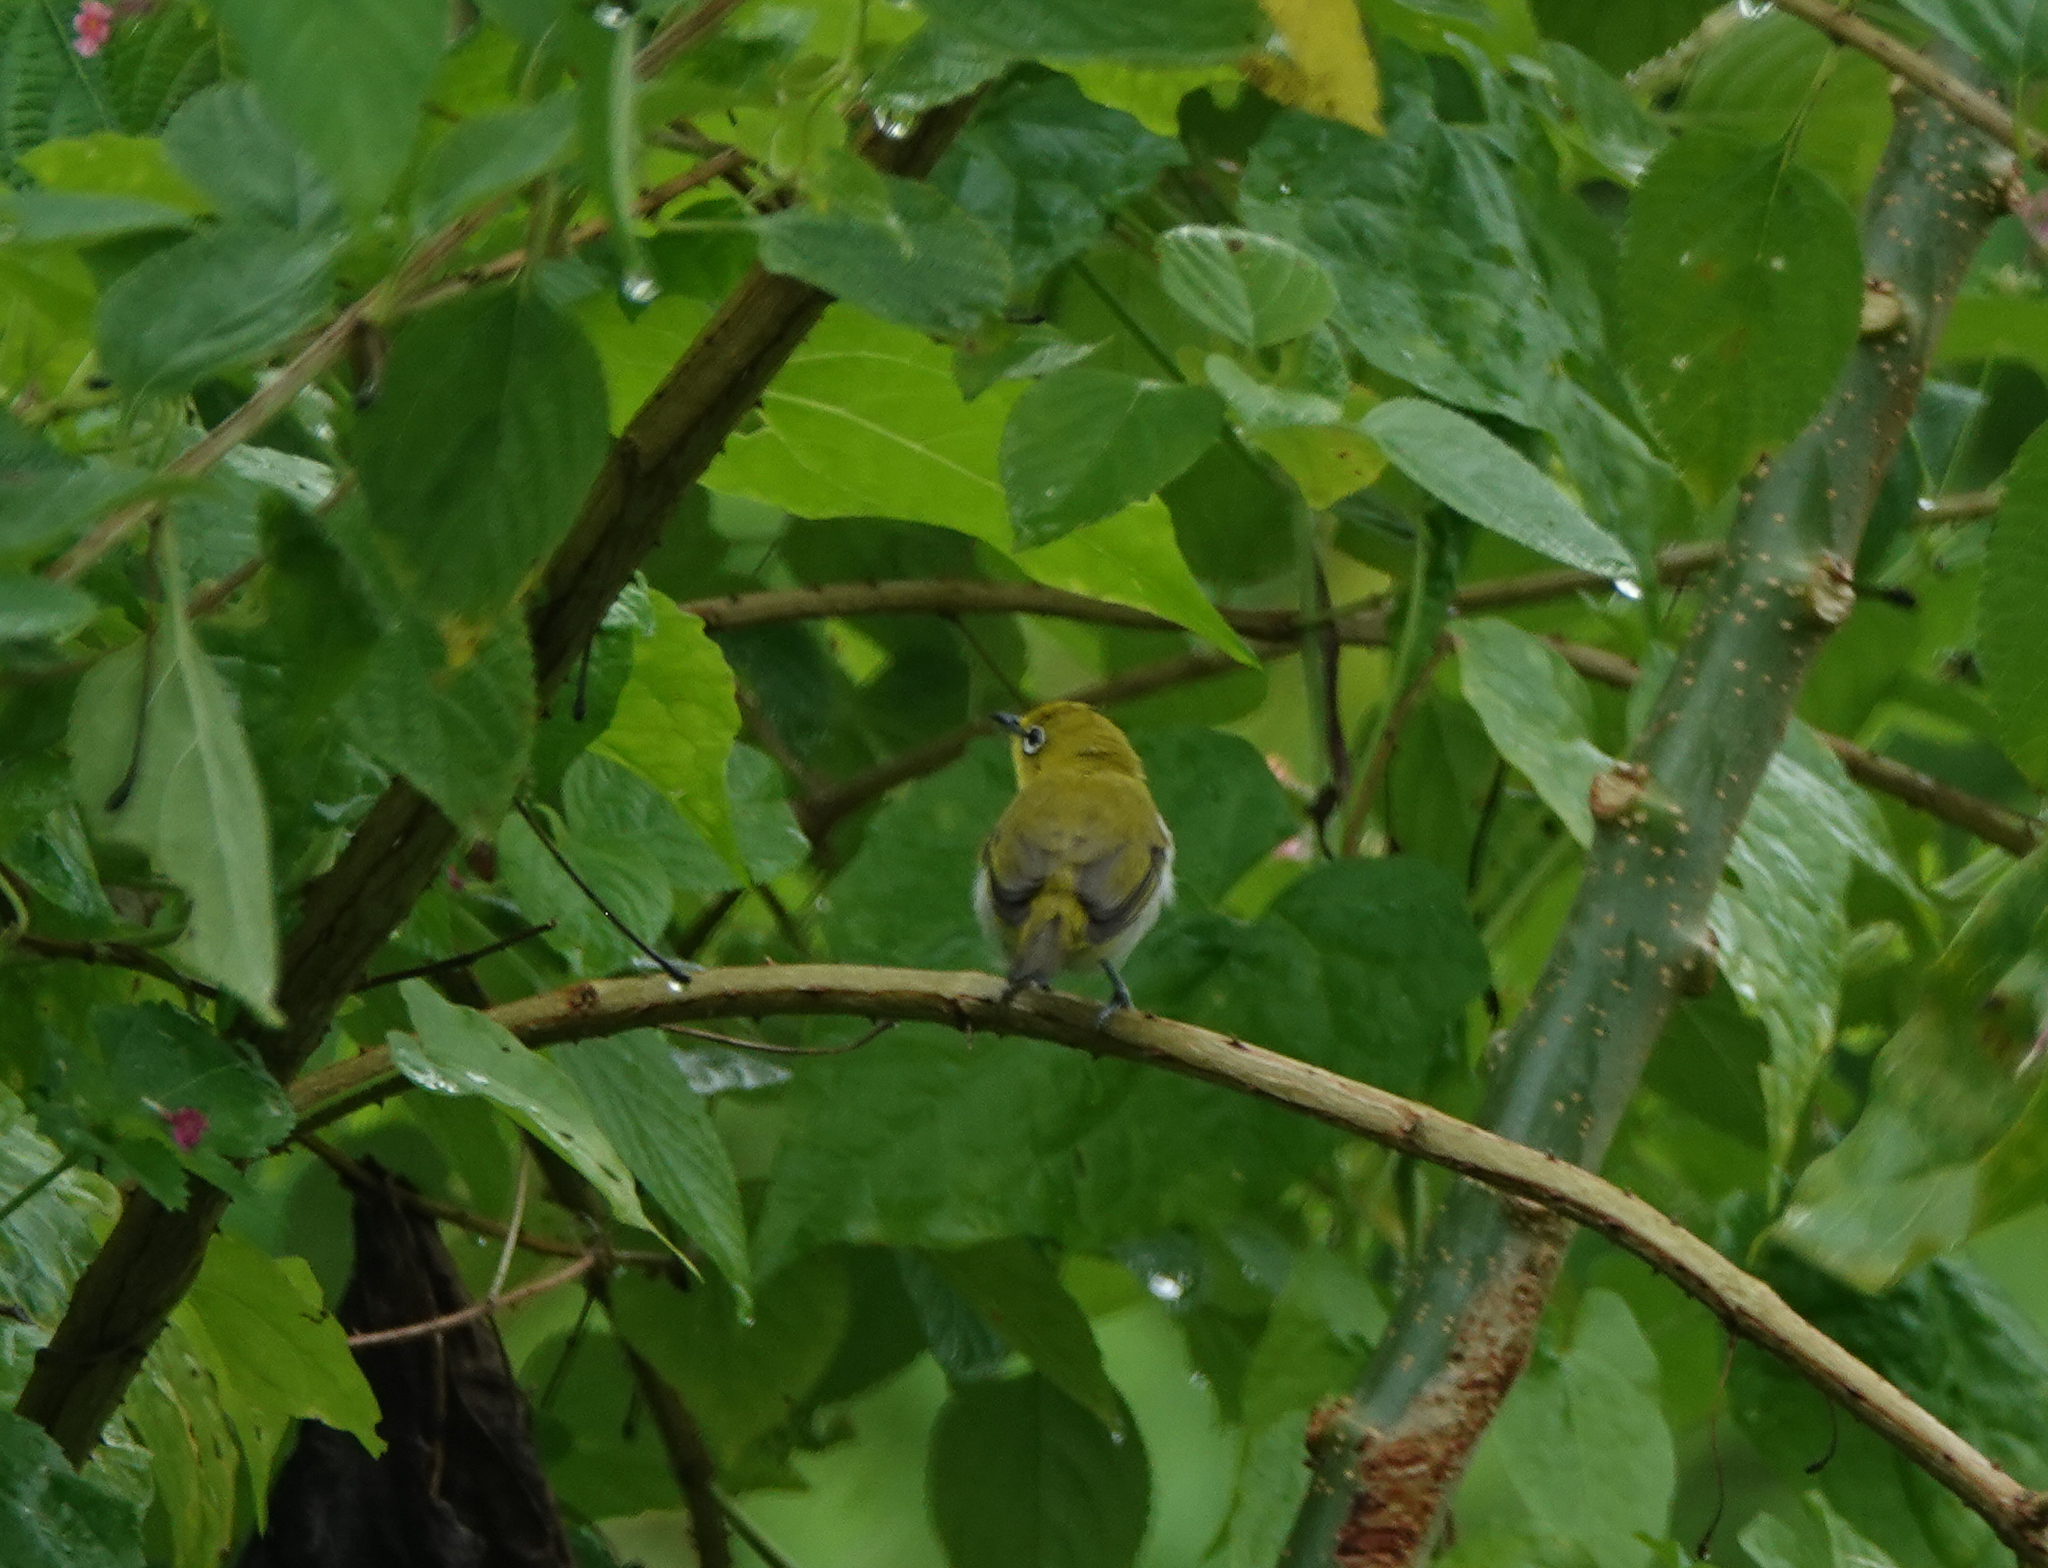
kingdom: Animalia
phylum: Chordata
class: Aves
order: Passeriformes
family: Zosteropidae
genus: Zosterops
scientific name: Zosterops palpebrosus
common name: Oriental white-eye
